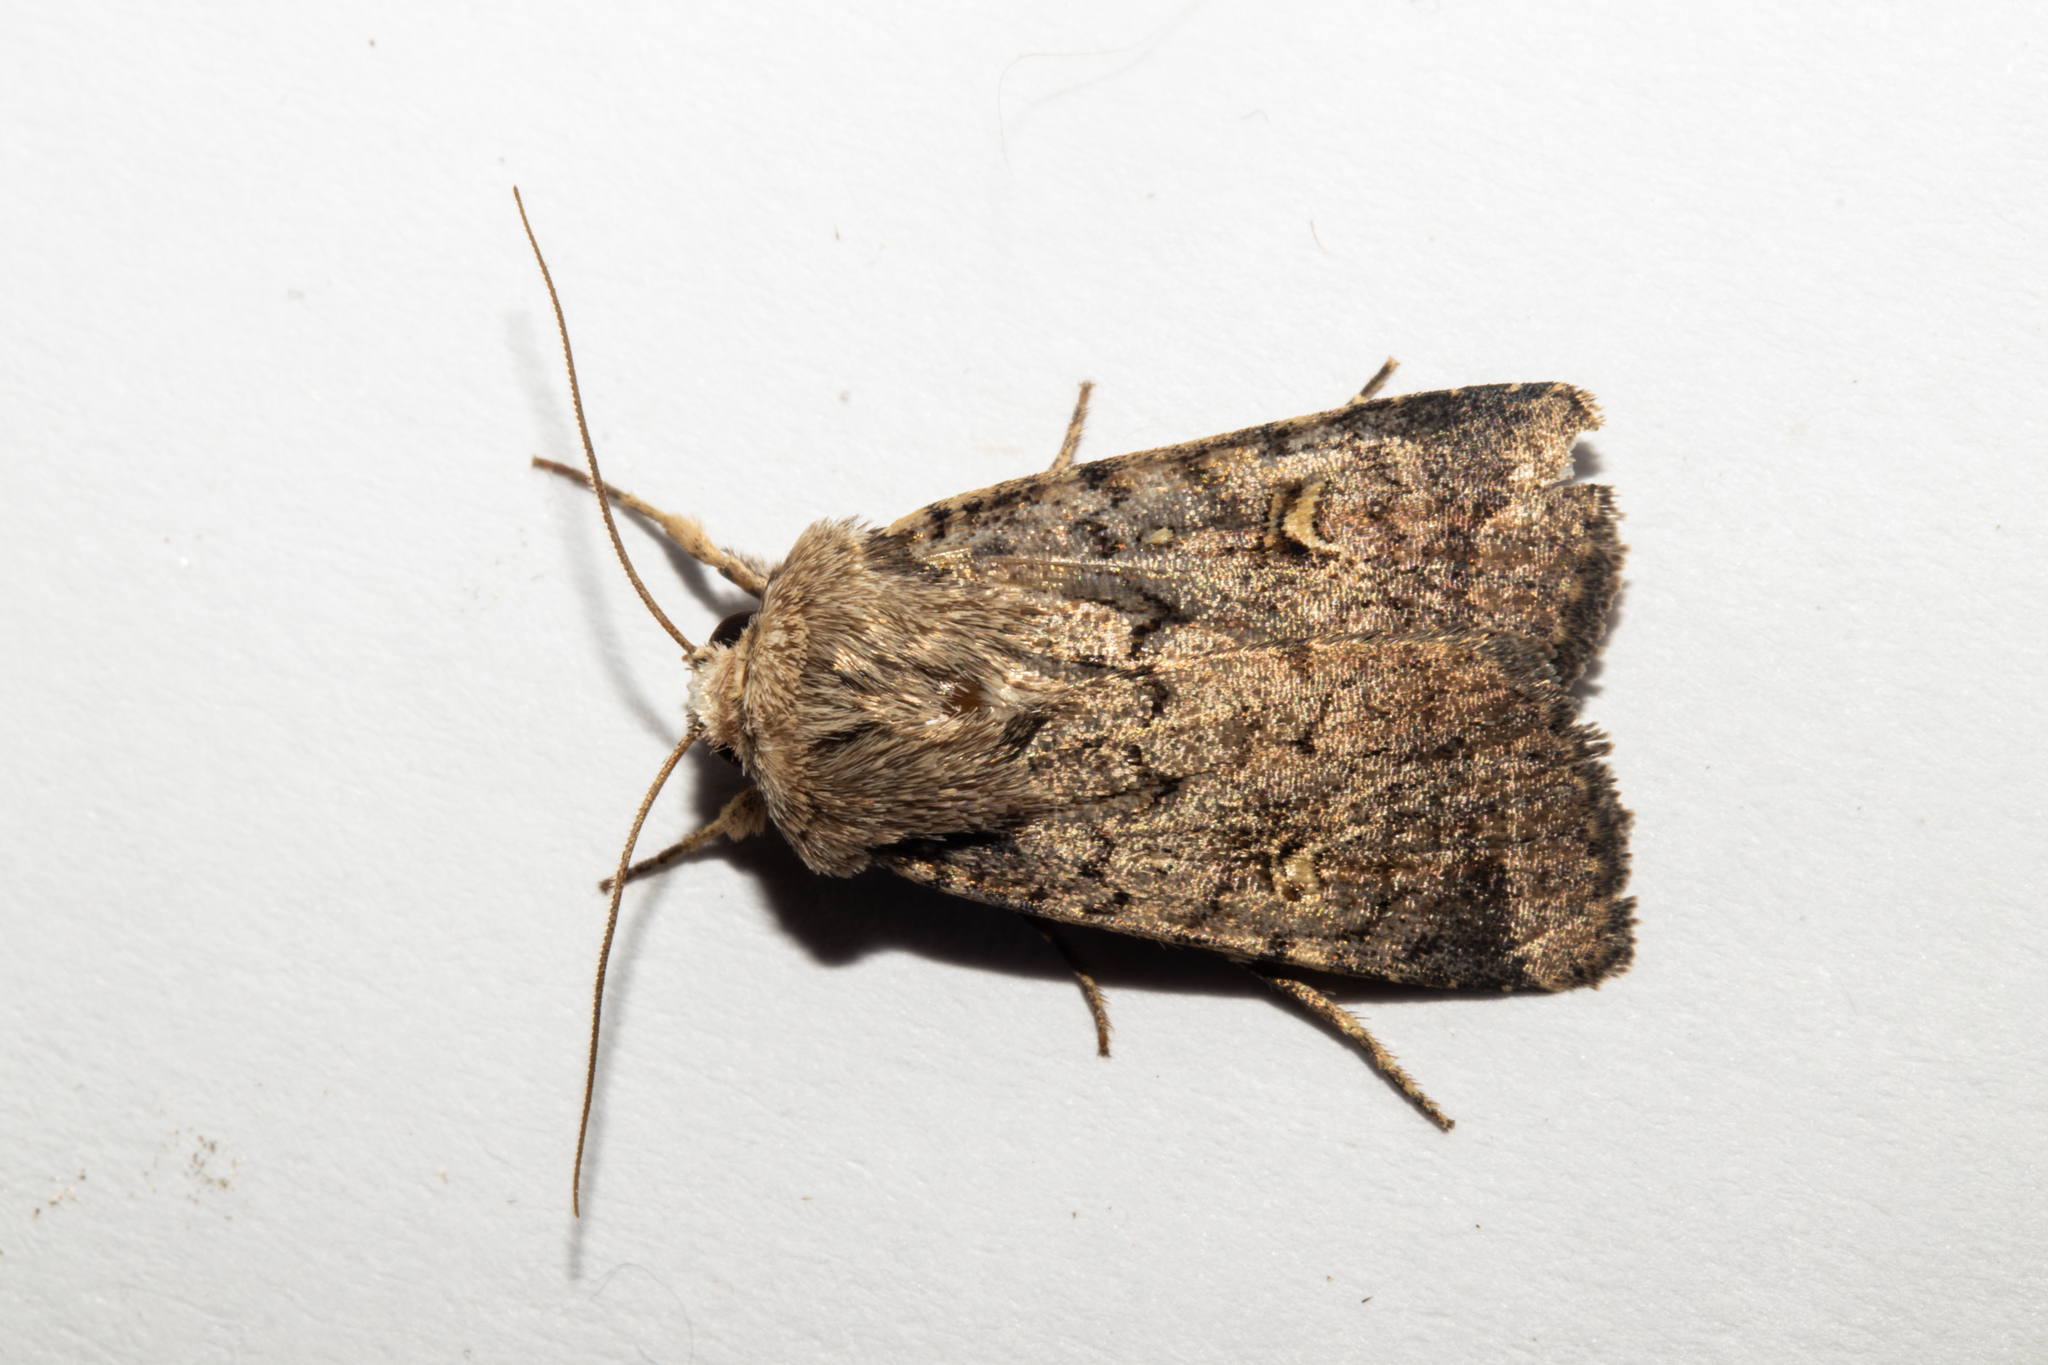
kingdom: Animalia
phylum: Arthropoda
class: Insecta
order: Lepidoptera
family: Noctuidae
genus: Proteuxoa
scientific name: Proteuxoa tetronycha
